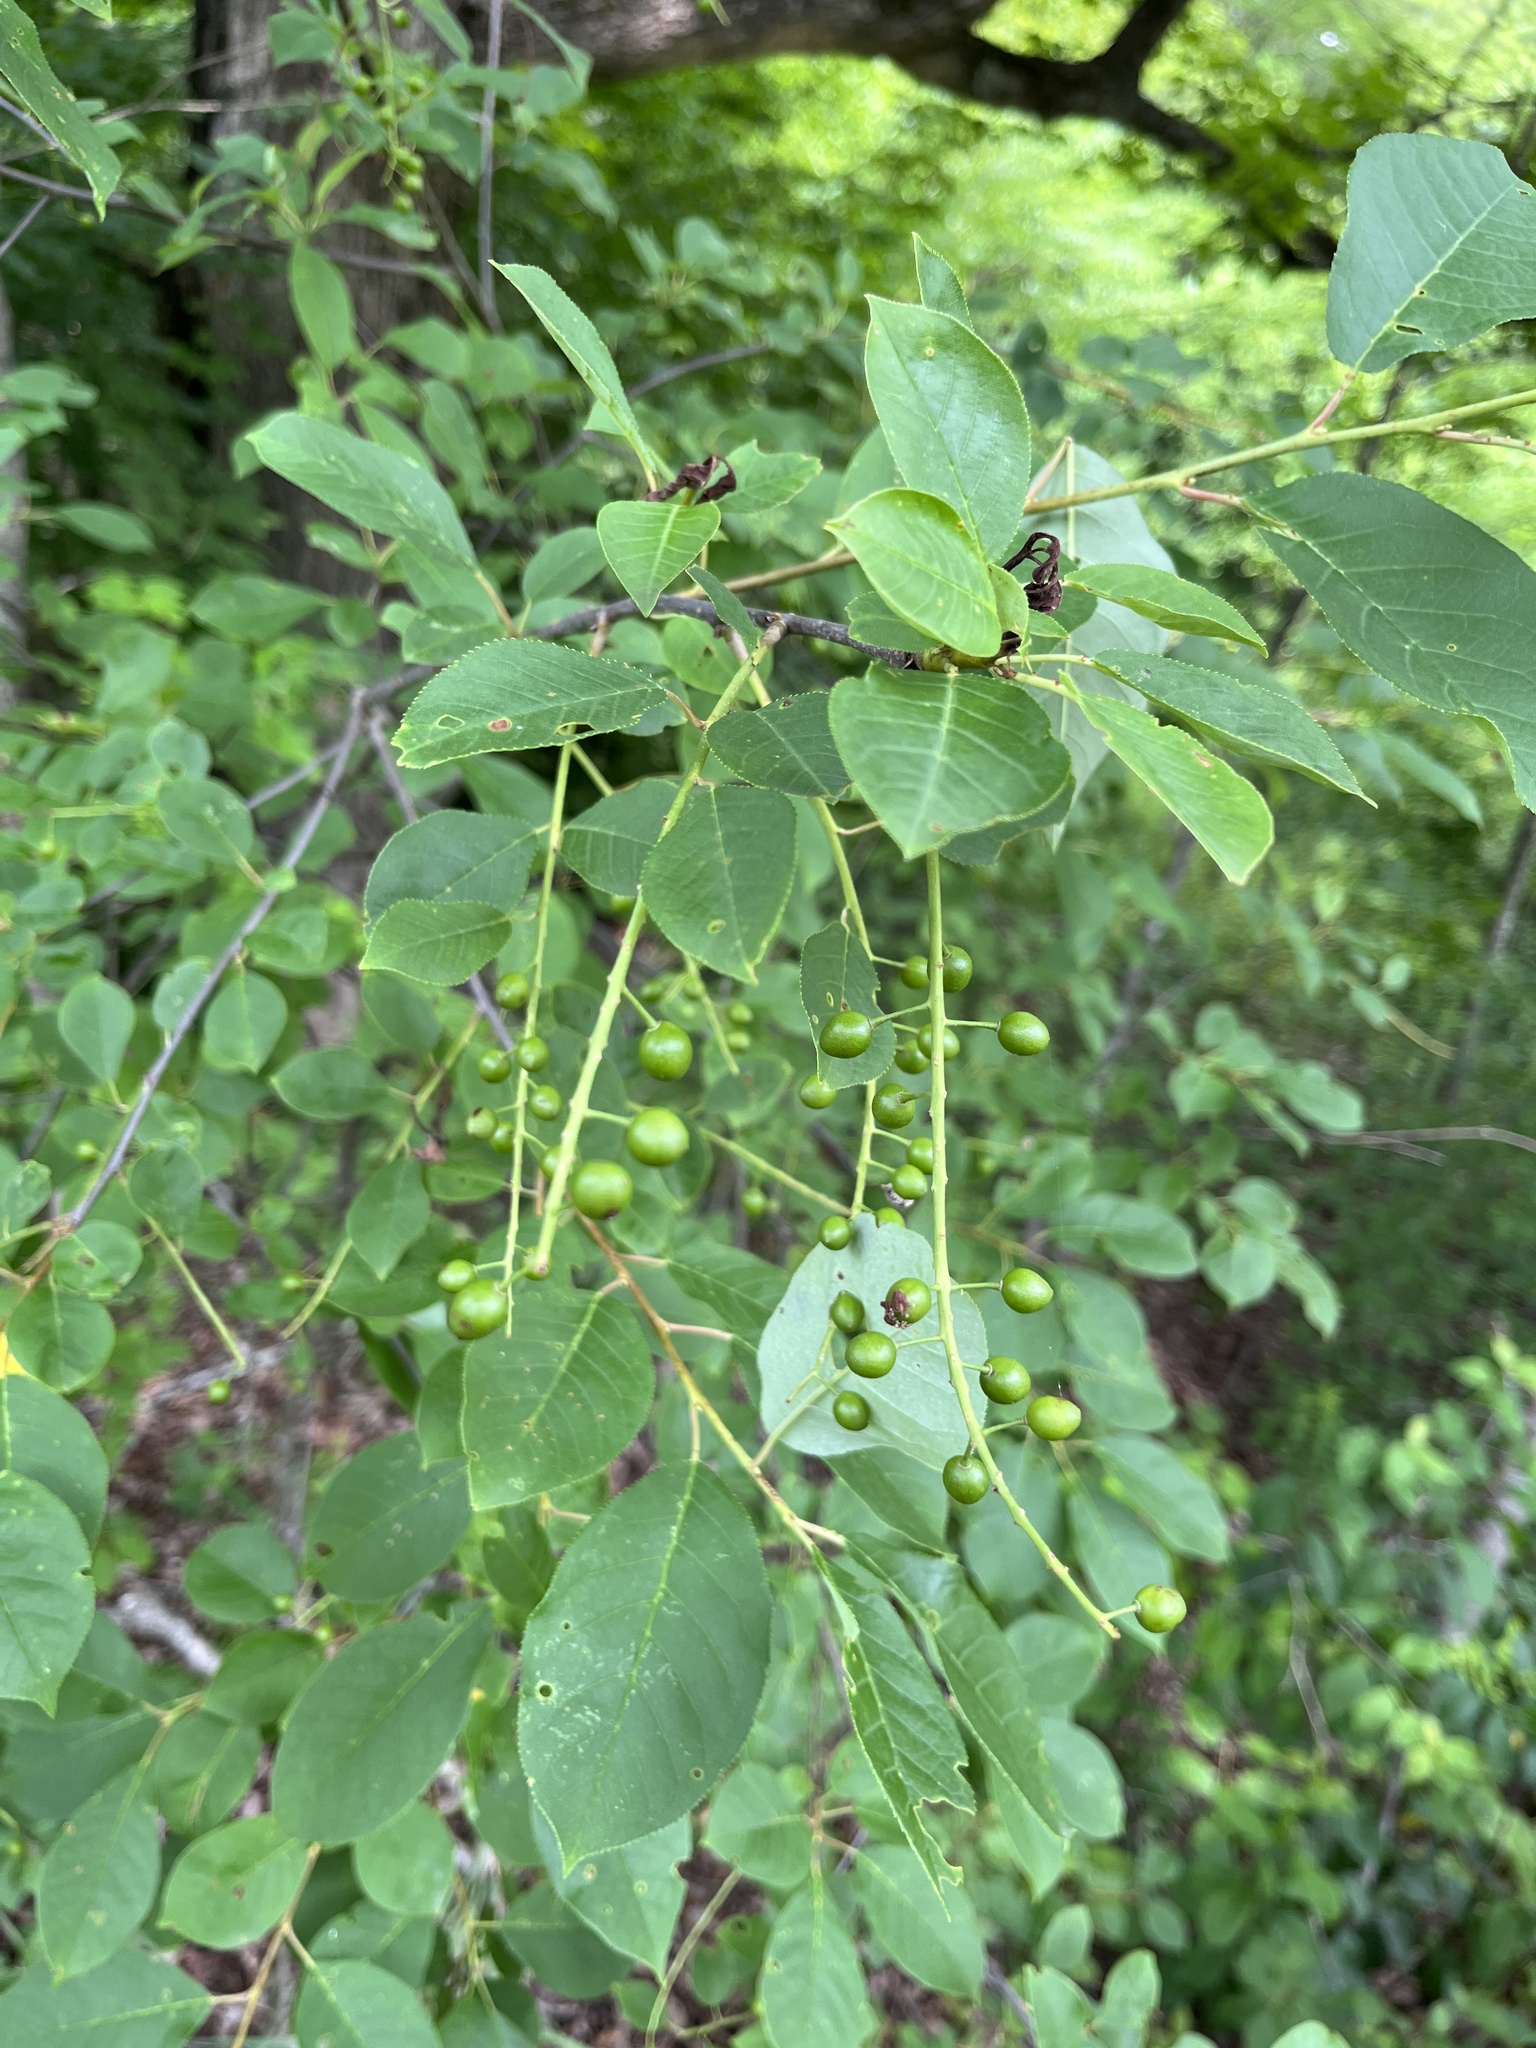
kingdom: Plantae
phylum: Tracheophyta
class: Magnoliopsida
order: Rosales
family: Rosaceae
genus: Prunus
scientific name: Prunus virginiana
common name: Chokecherry
